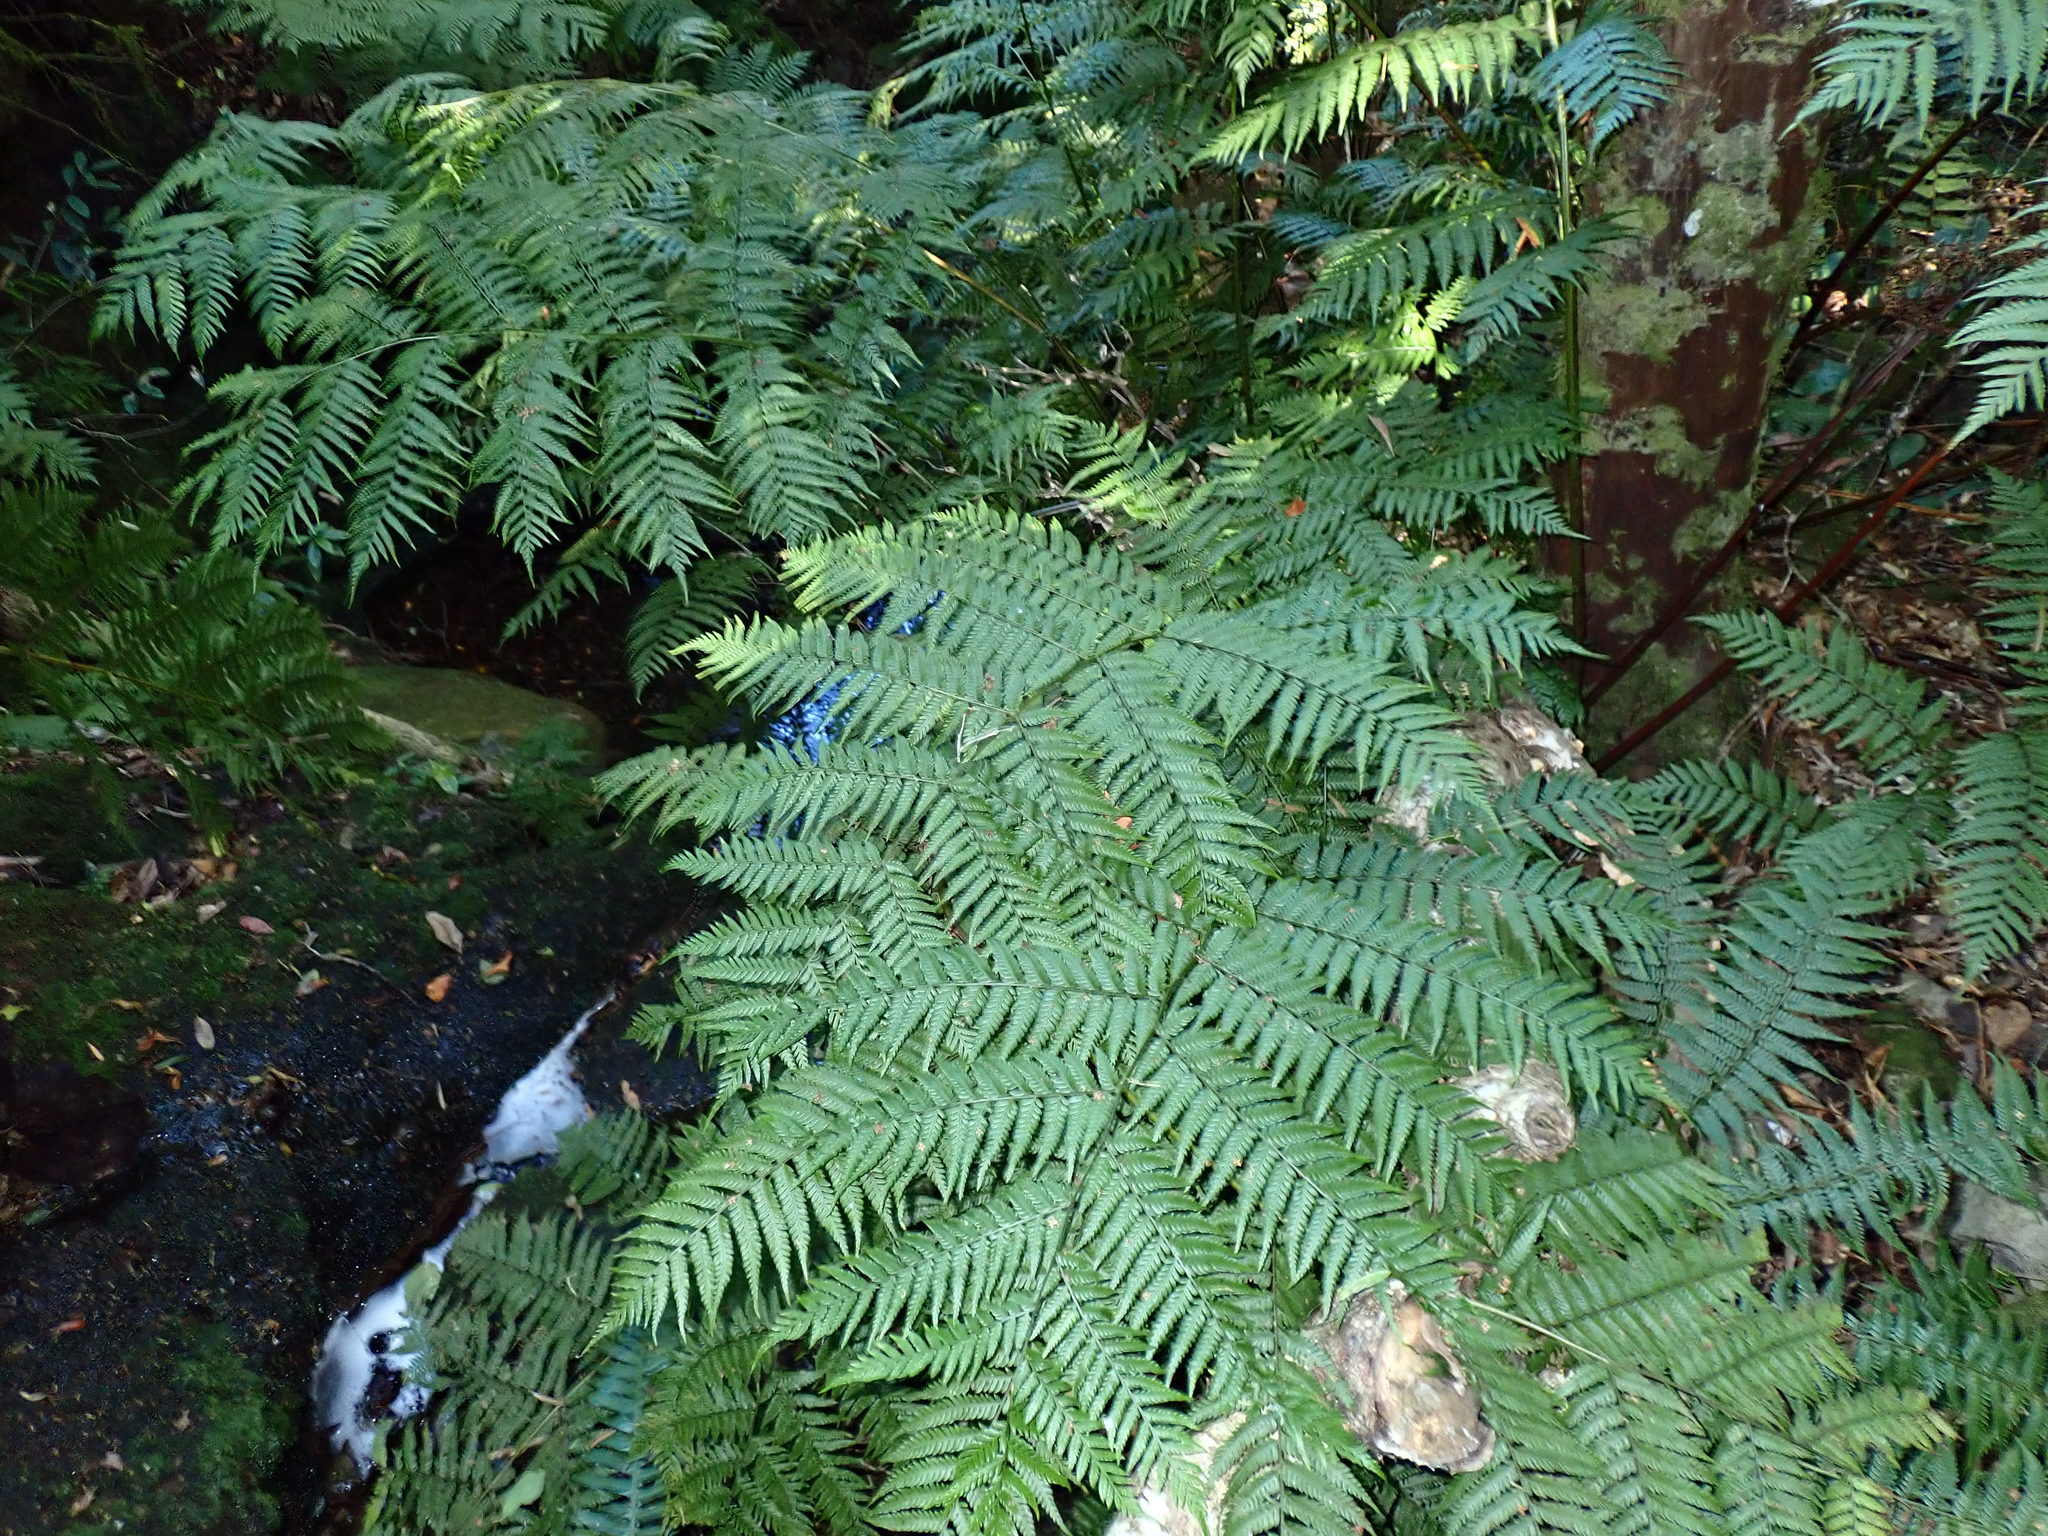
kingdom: Plantae
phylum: Tracheophyta
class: Polypodiopsida
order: Cyatheales
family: Cyatheaceae
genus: Gymnosphaera
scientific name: Gymnosphaera capensis
